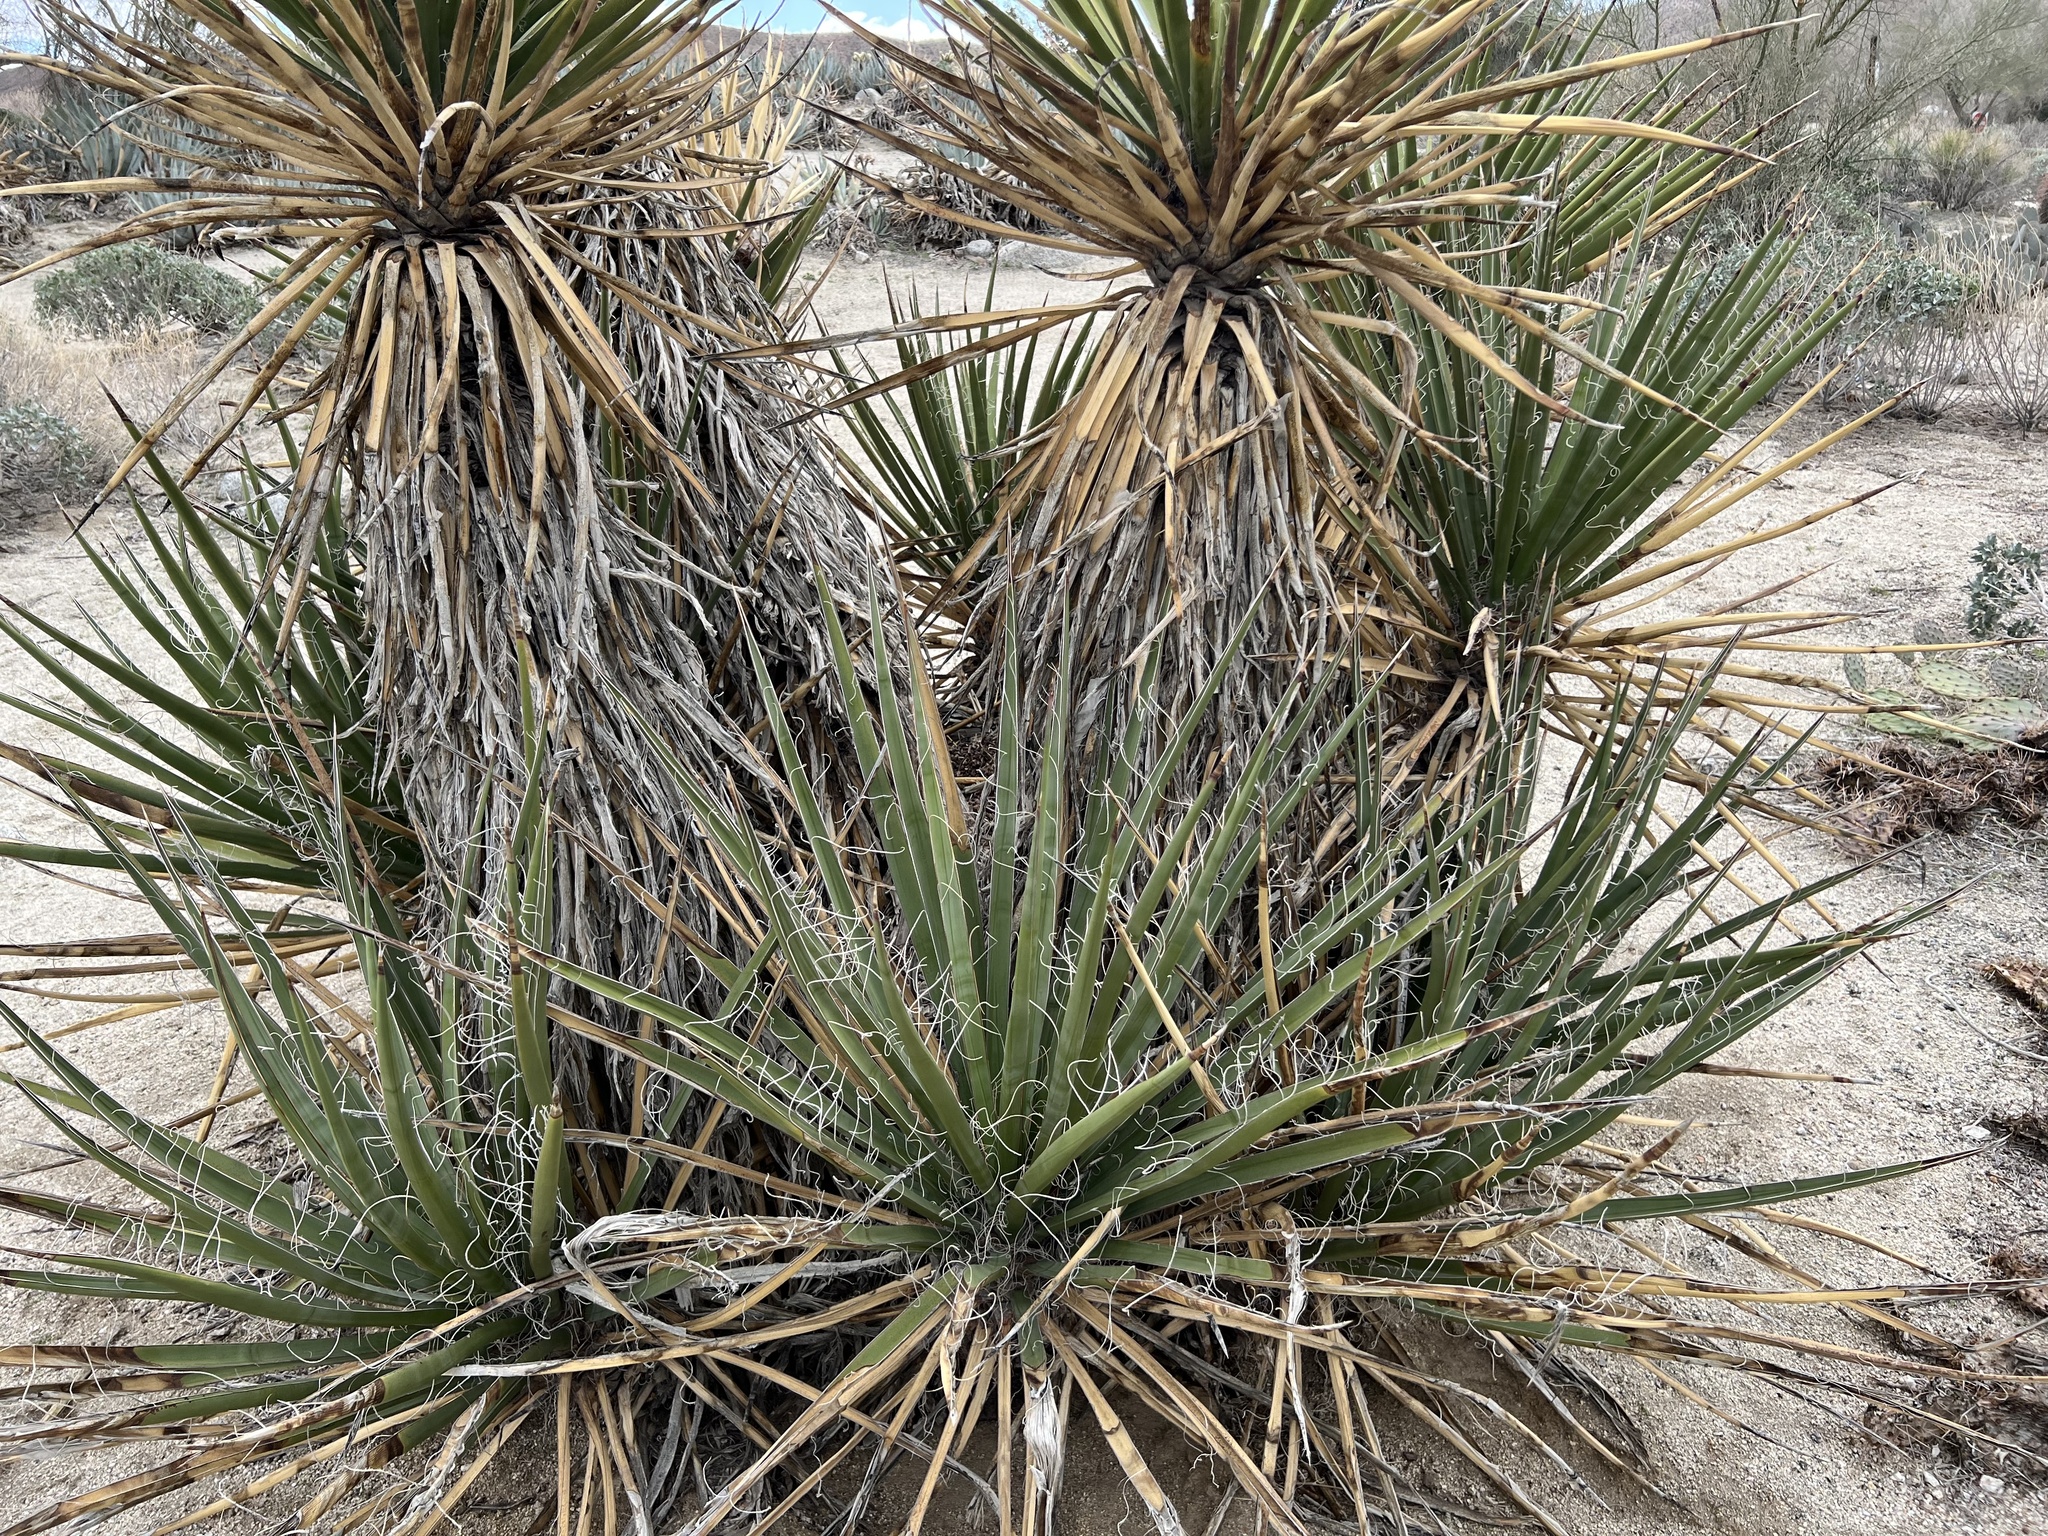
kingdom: Plantae
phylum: Tracheophyta
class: Liliopsida
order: Asparagales
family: Asparagaceae
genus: Yucca
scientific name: Yucca schidigera
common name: Mojave yucca
